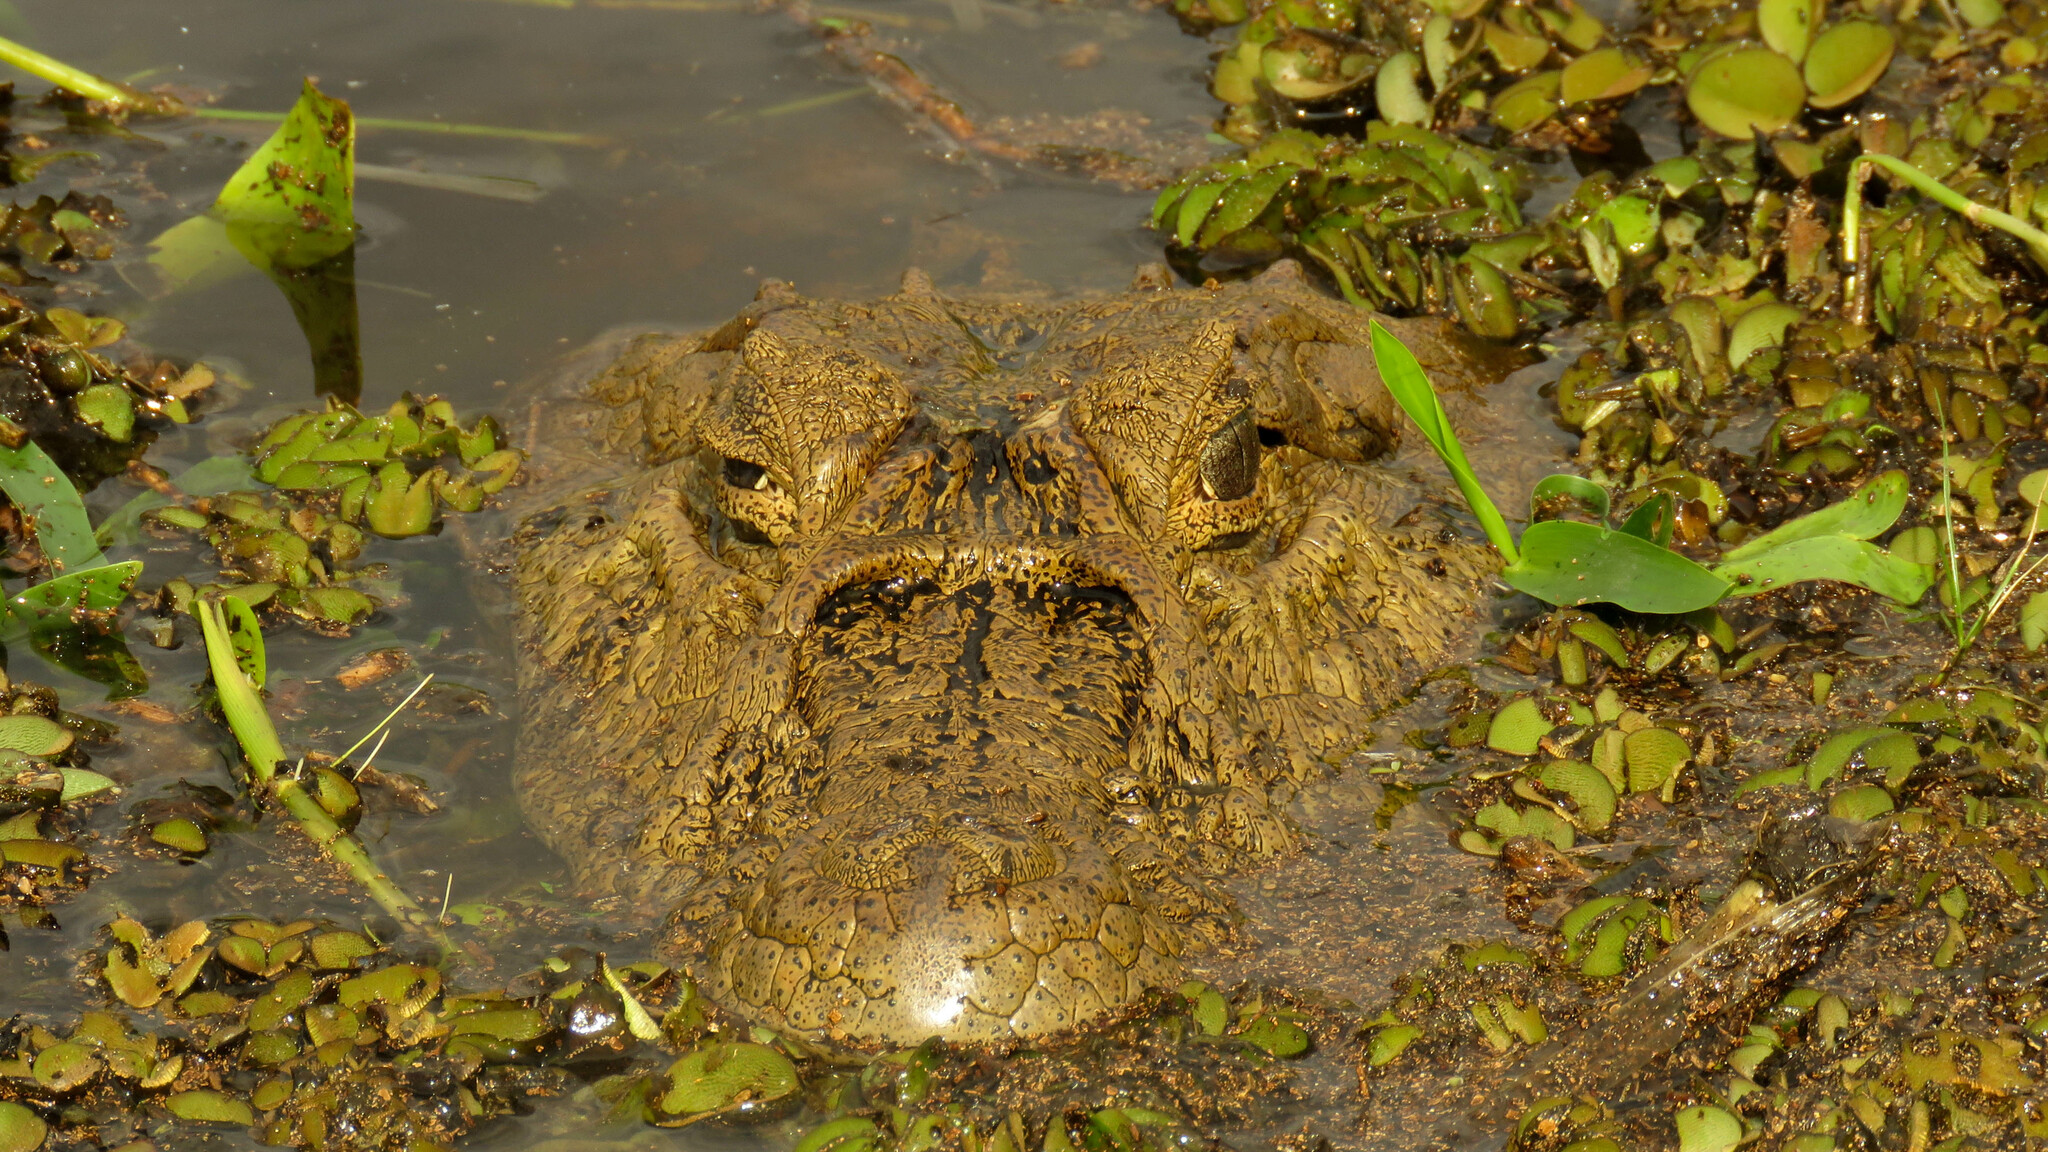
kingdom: Animalia
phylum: Chordata
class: Crocodylia
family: Alligatoridae
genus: Caiman
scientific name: Caiman latirostris
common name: Broad-snouted caiman
